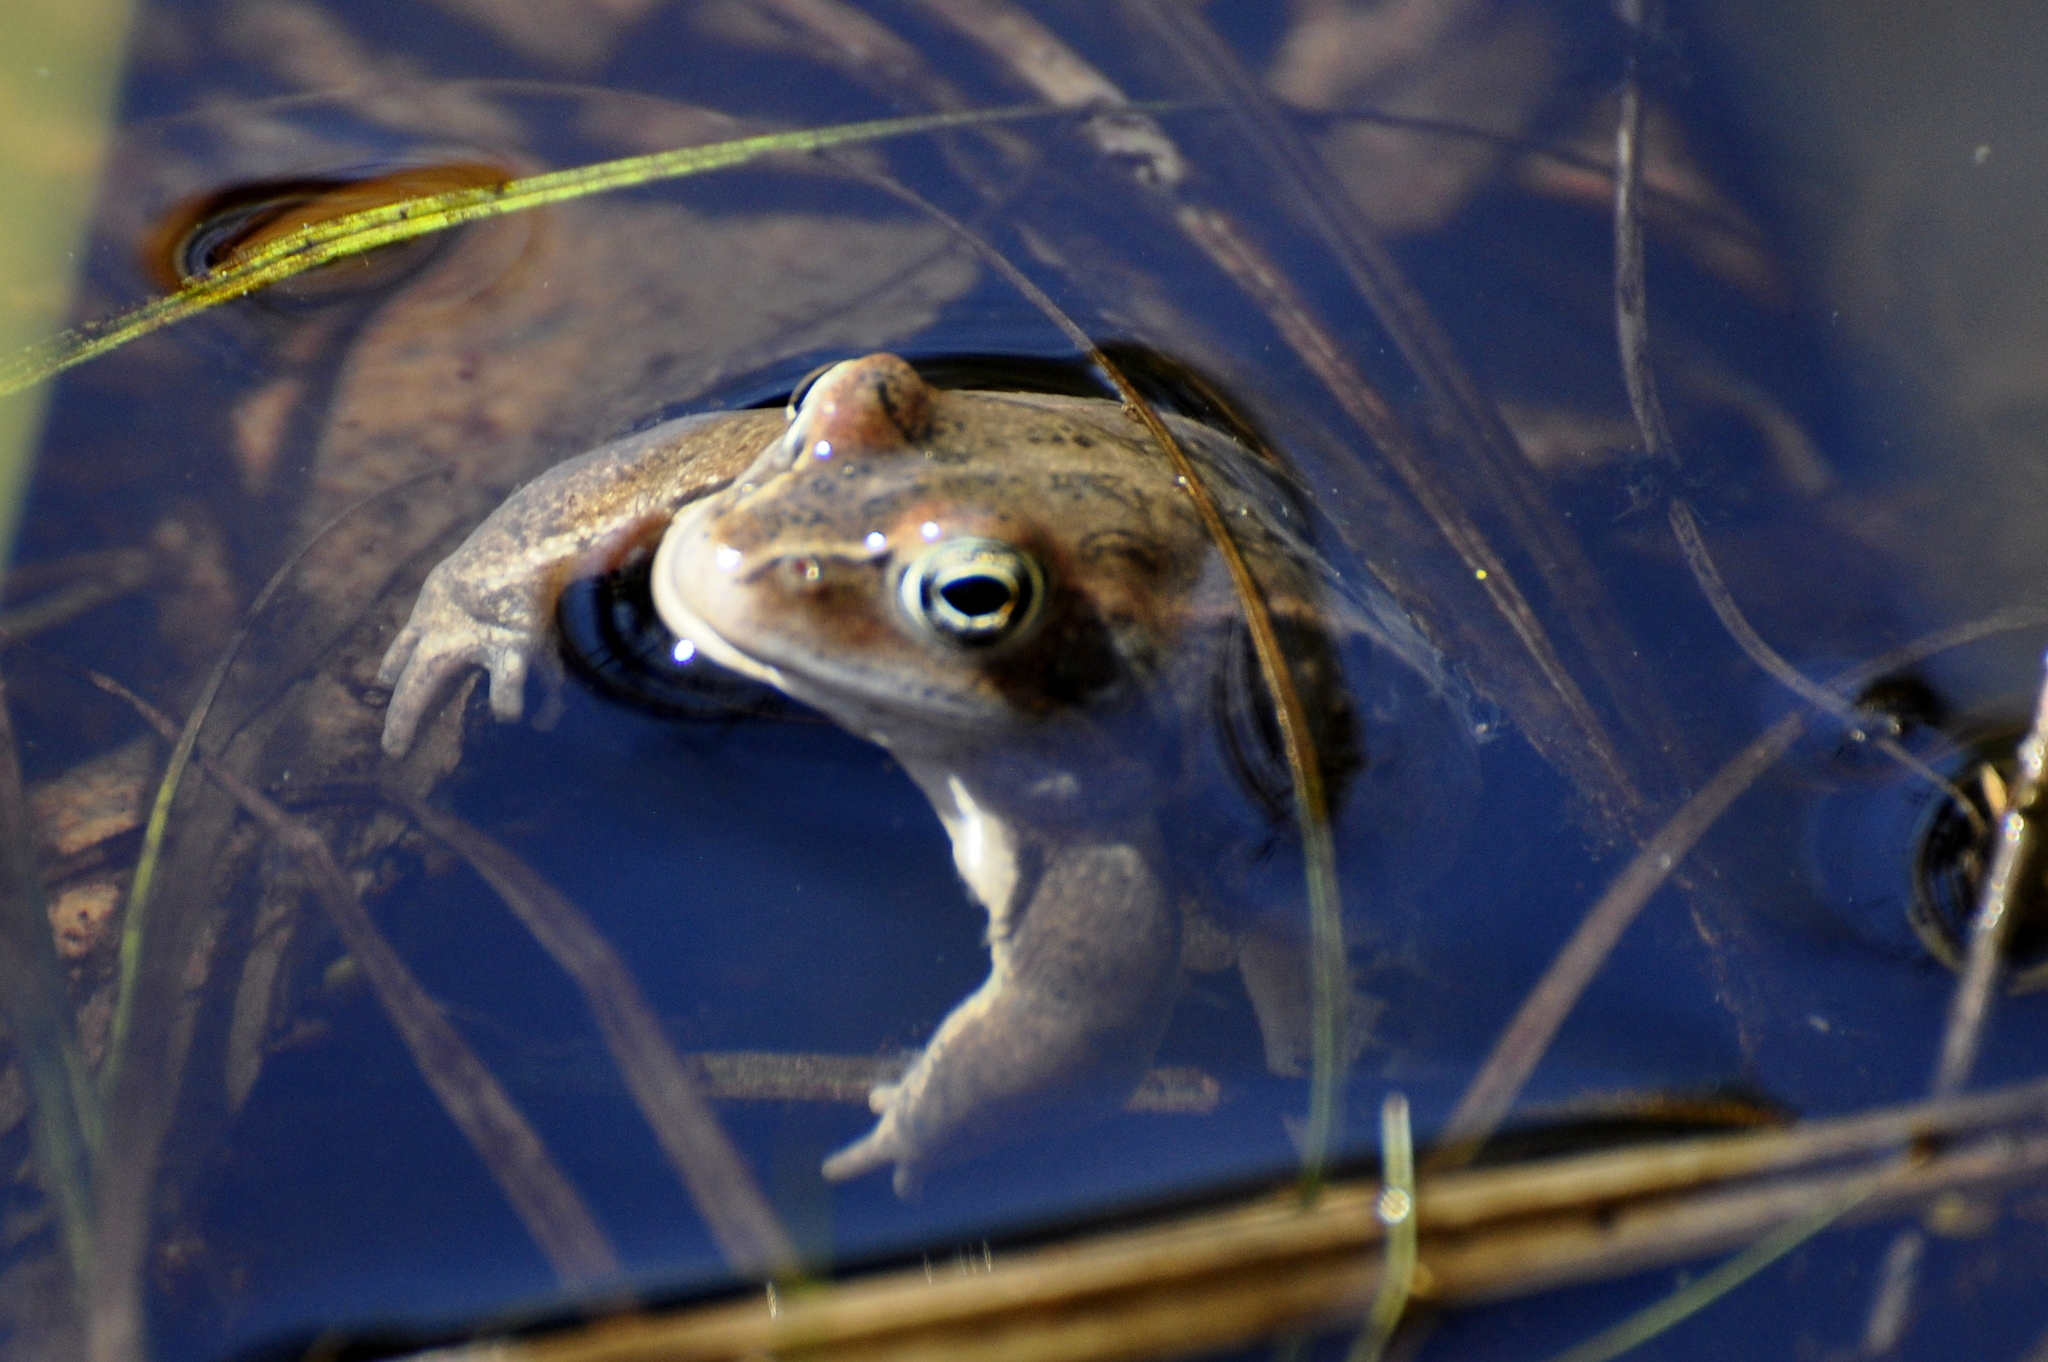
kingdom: Animalia
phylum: Chordata
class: Amphibia
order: Anura
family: Ranidae
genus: Rana
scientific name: Rana arvalis
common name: Moor frog
